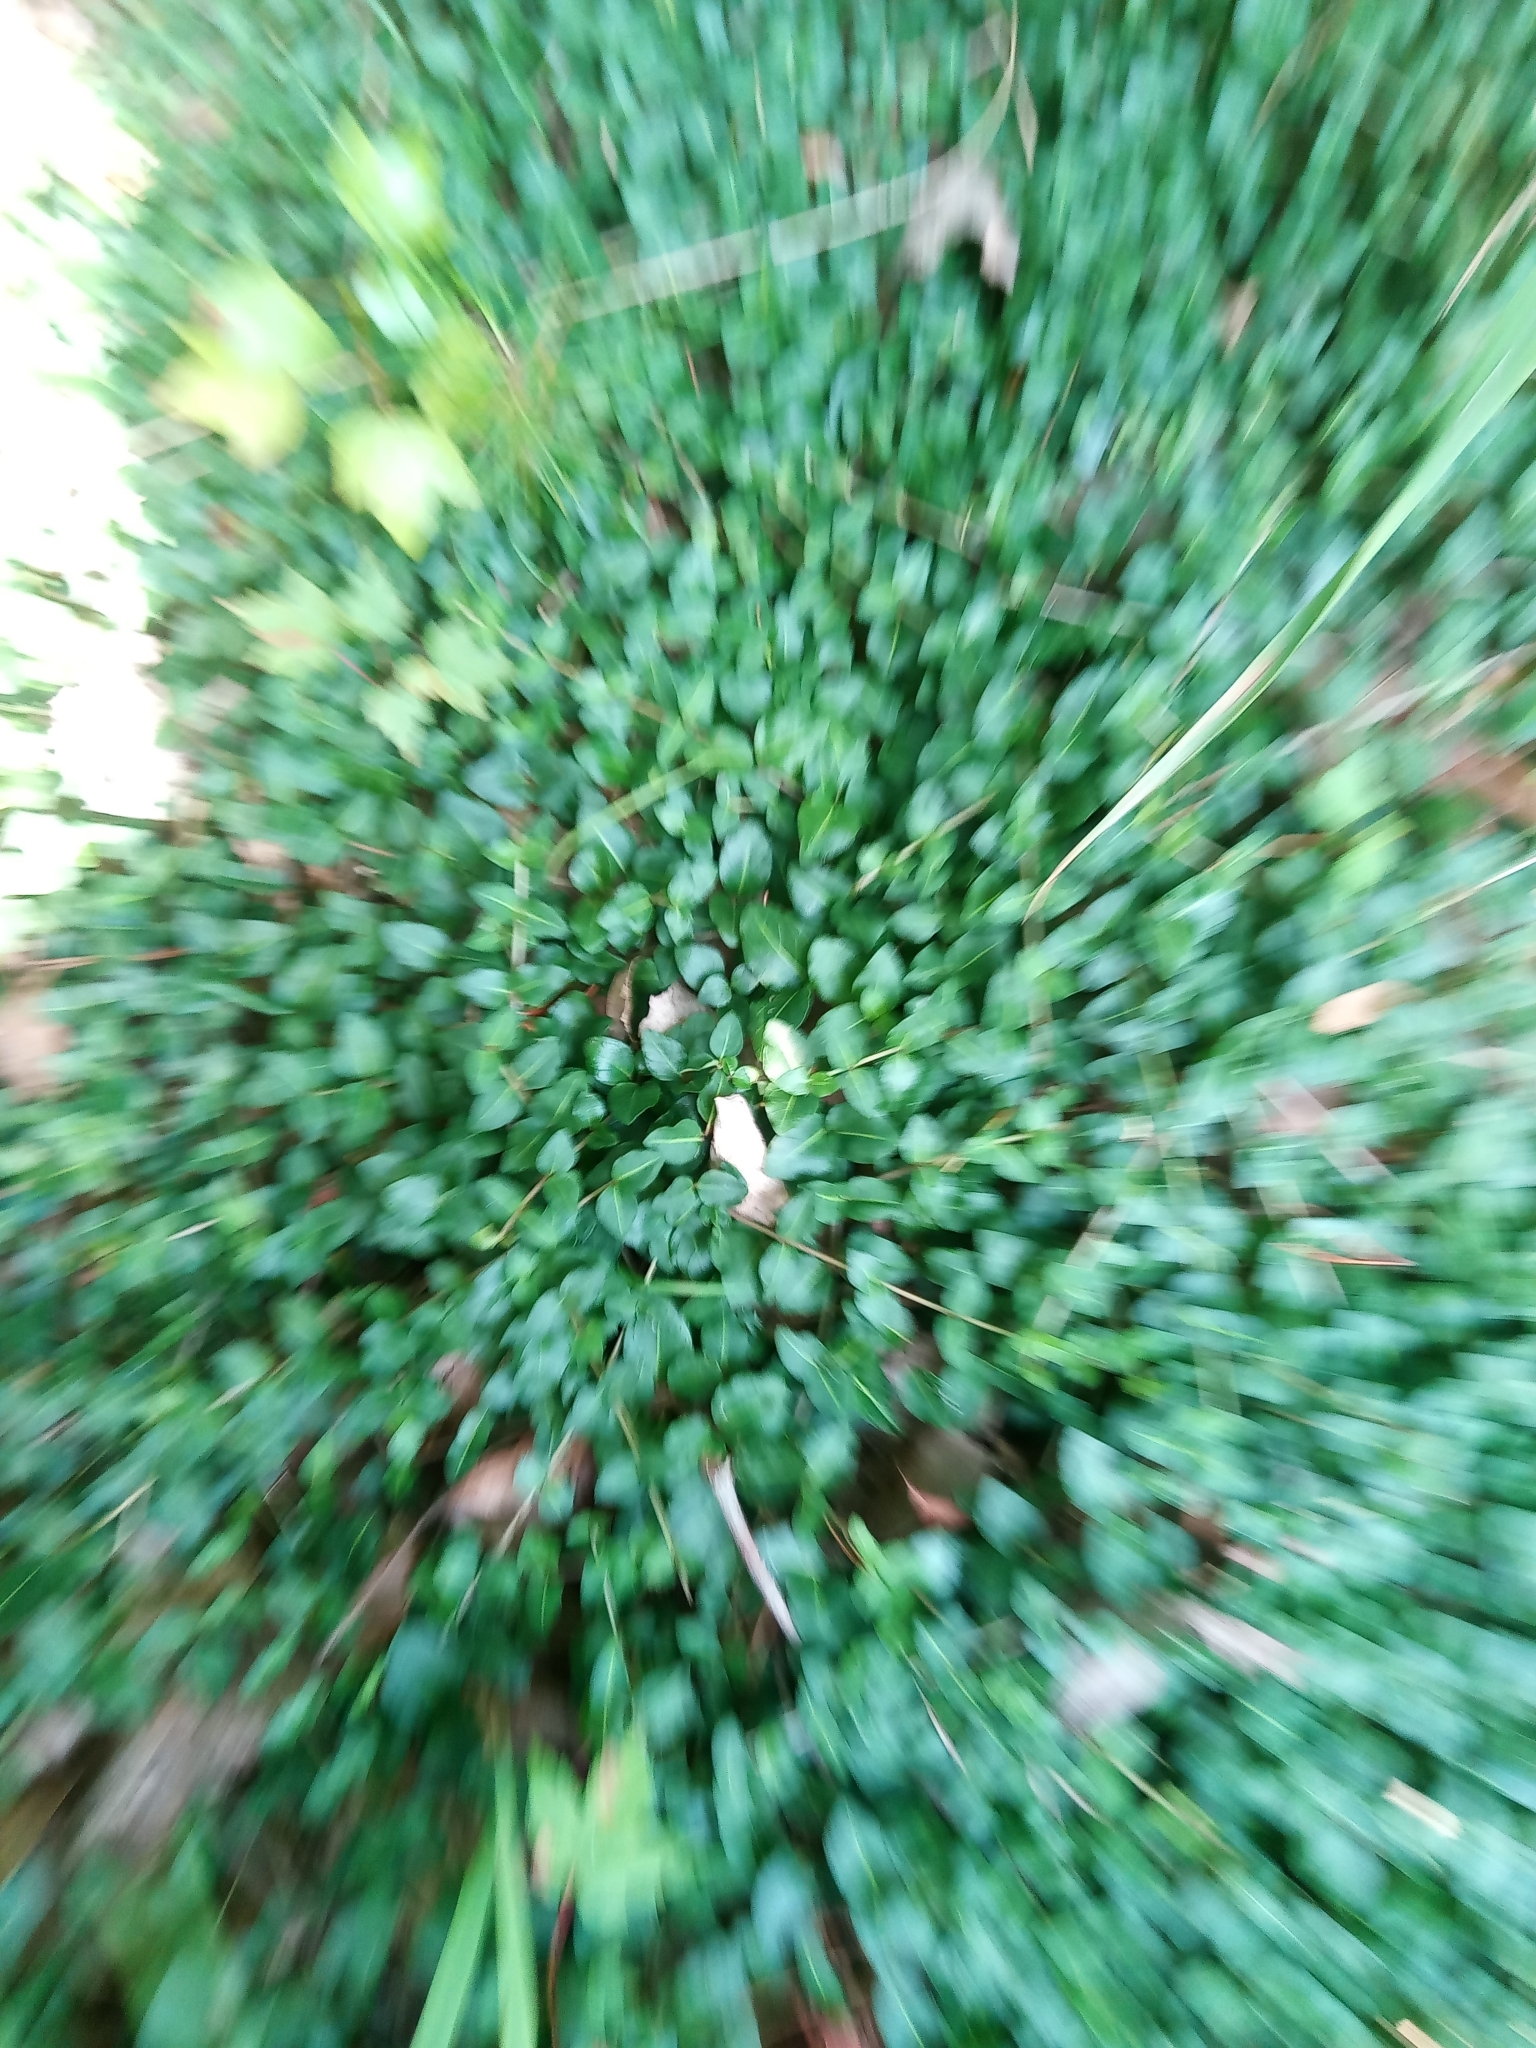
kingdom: Plantae
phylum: Tracheophyta
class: Magnoliopsida
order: Gentianales
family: Rubiaceae
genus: Mitchella
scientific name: Mitchella repens
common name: Partridge-berry
